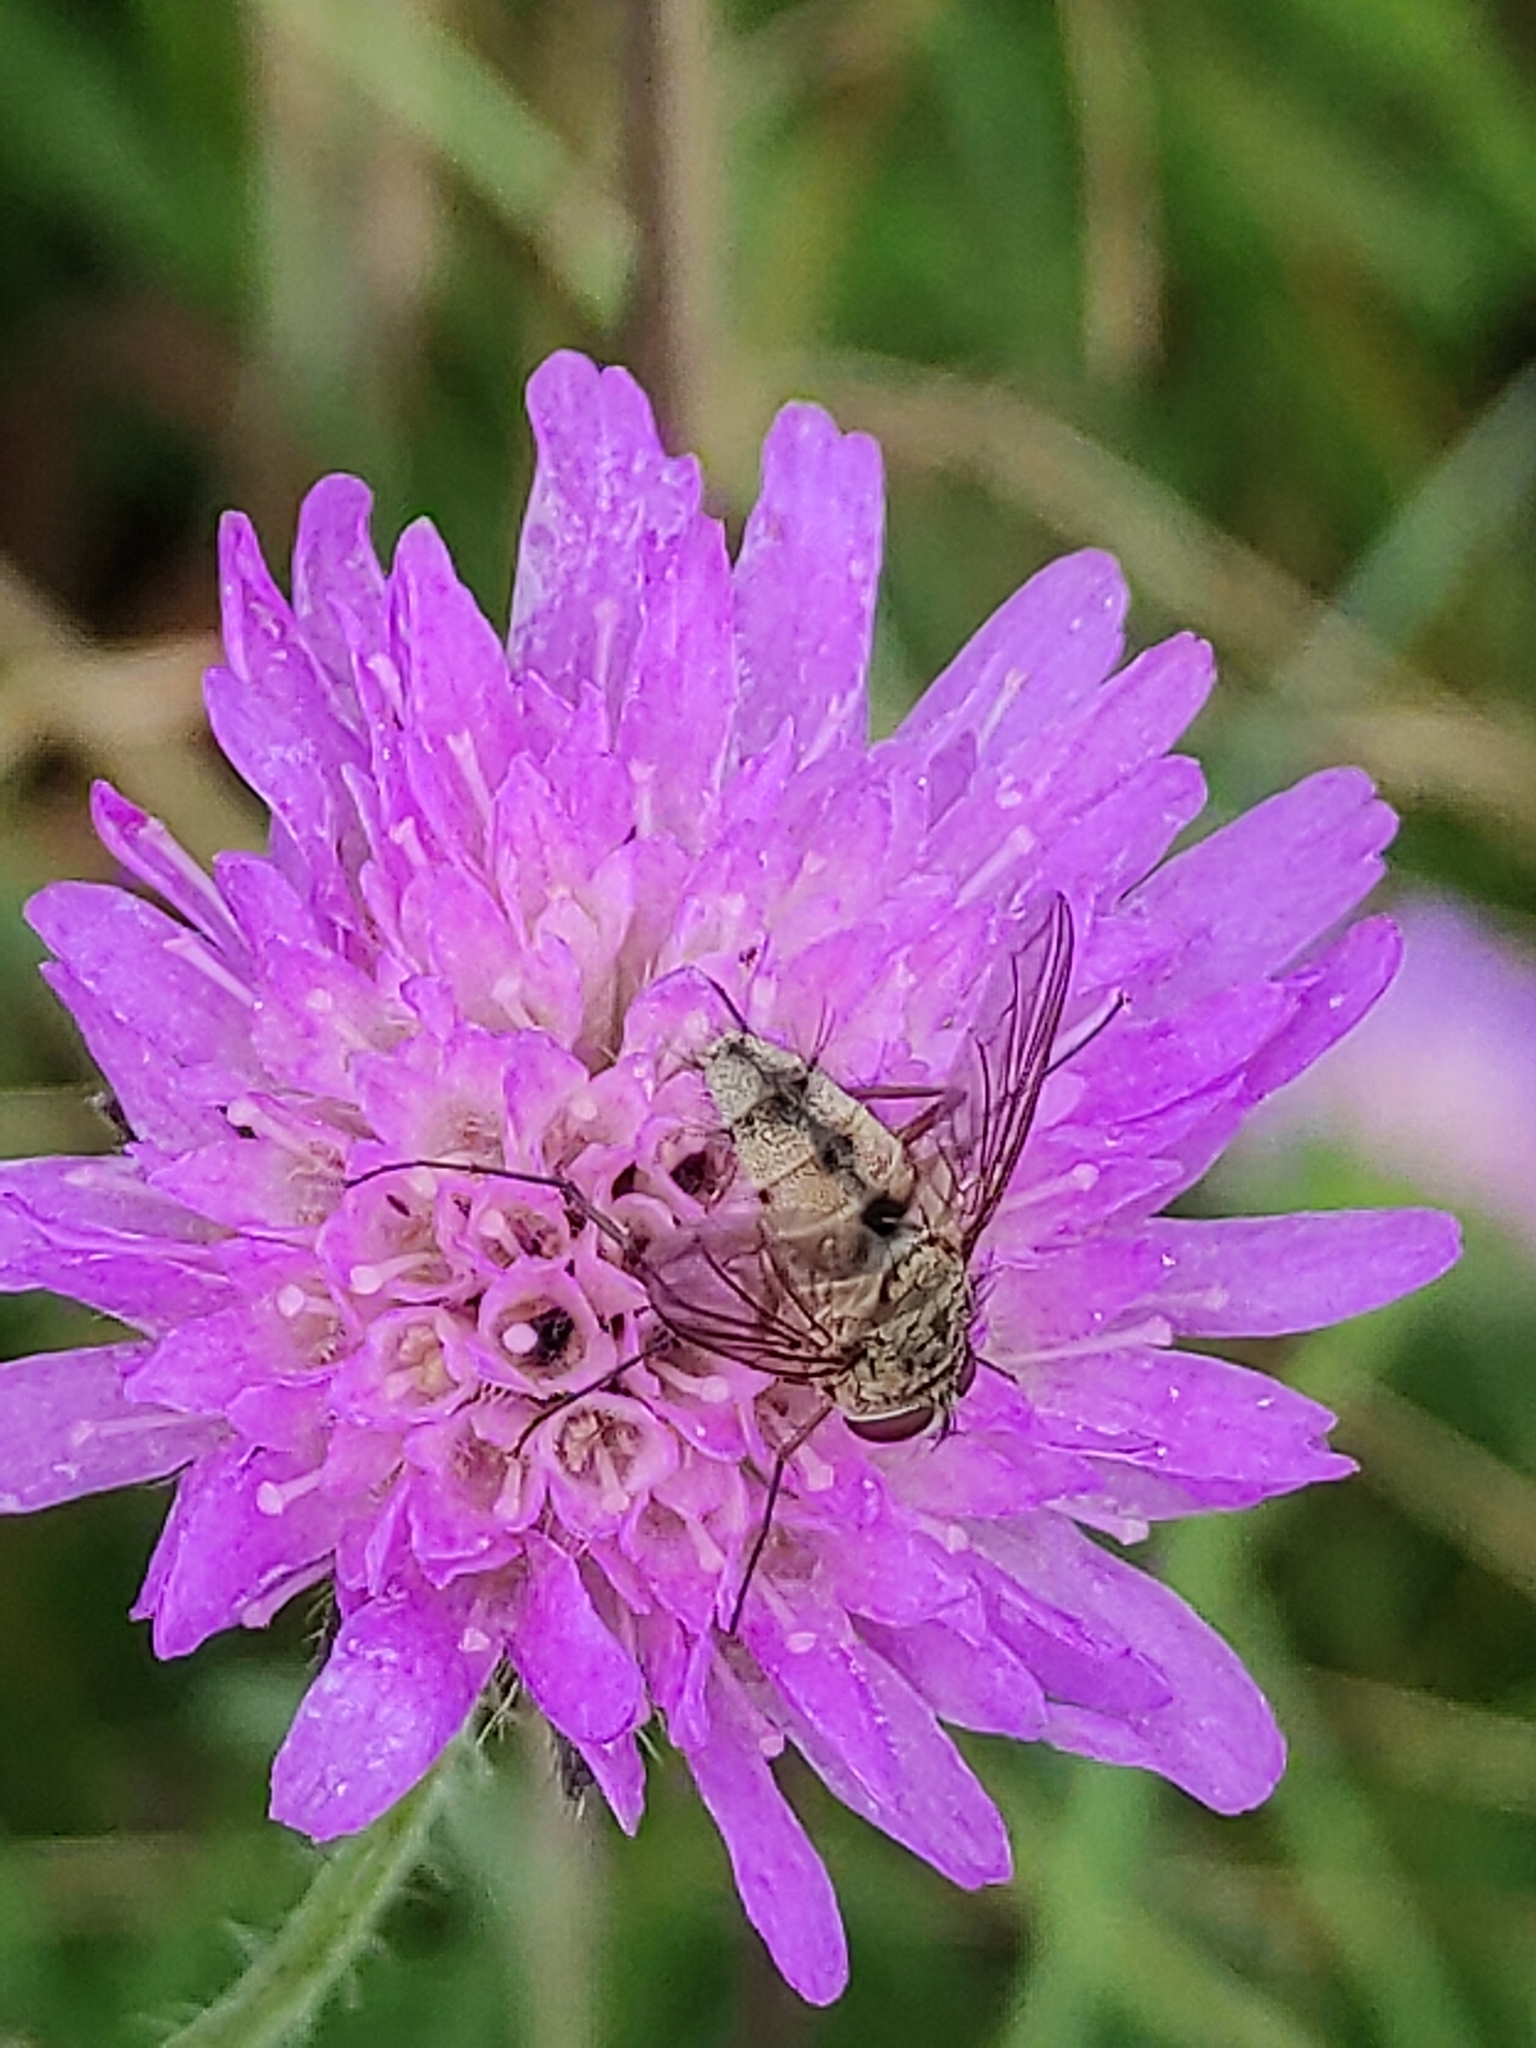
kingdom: Animalia
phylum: Arthropoda
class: Insecta
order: Diptera
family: Tachinidae
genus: Prosena
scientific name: Prosena siberita
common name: Parasitic fly
